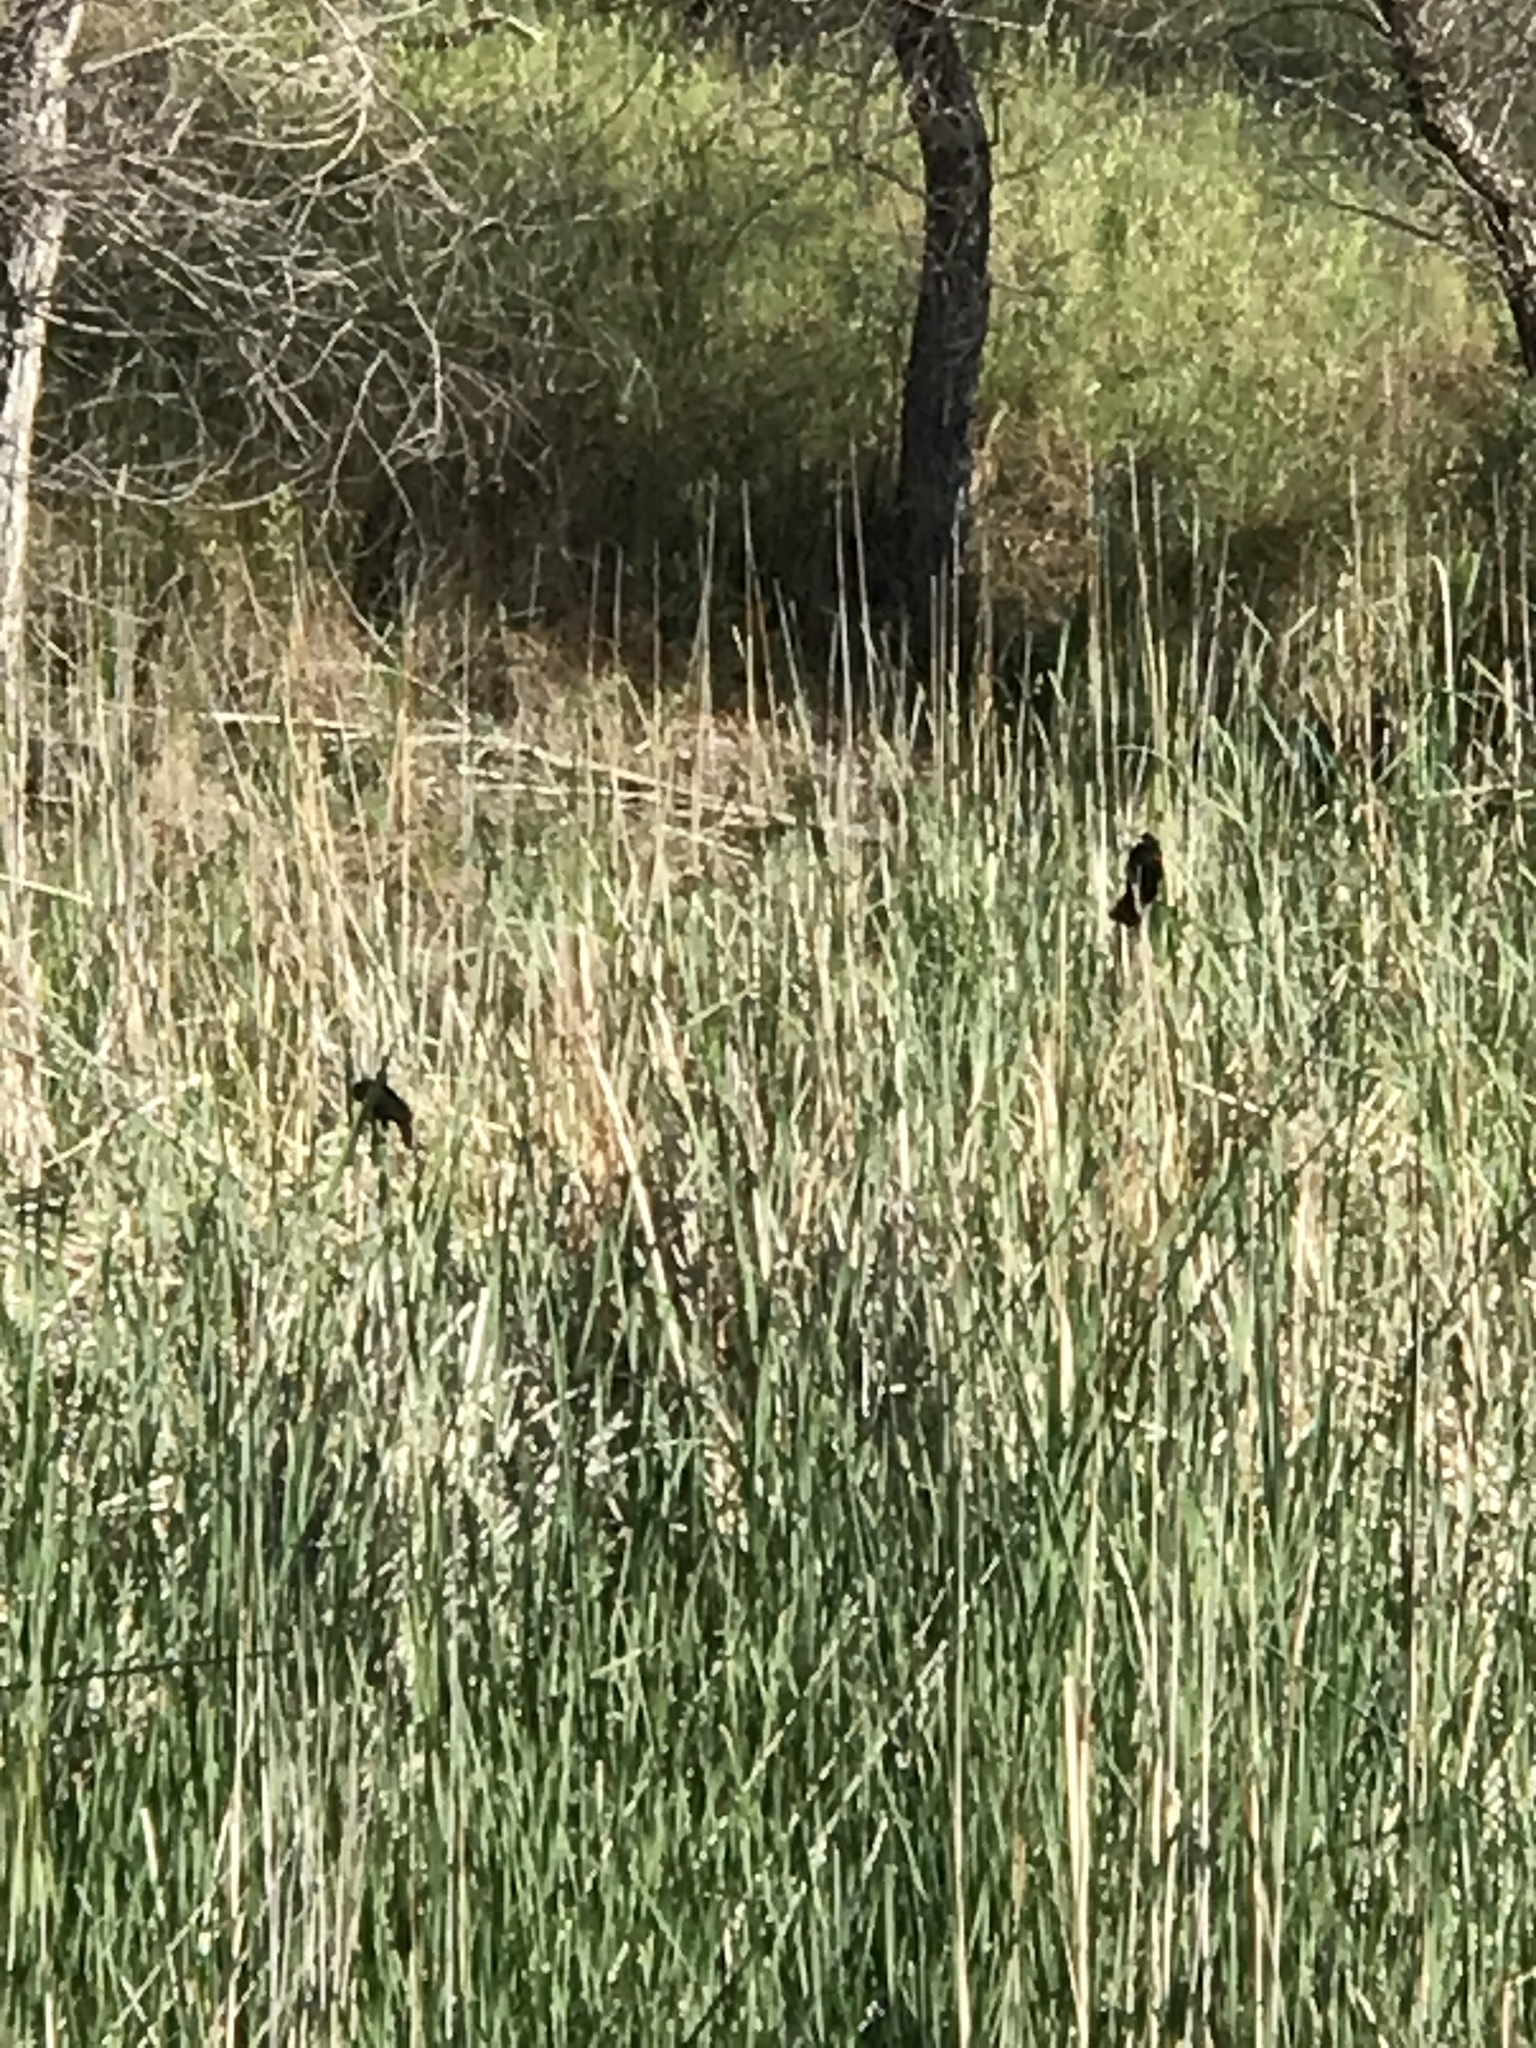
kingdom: Animalia
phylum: Chordata
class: Aves
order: Passeriformes
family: Icteridae
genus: Agelaius
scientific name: Agelaius phoeniceus
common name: Red-winged blackbird
